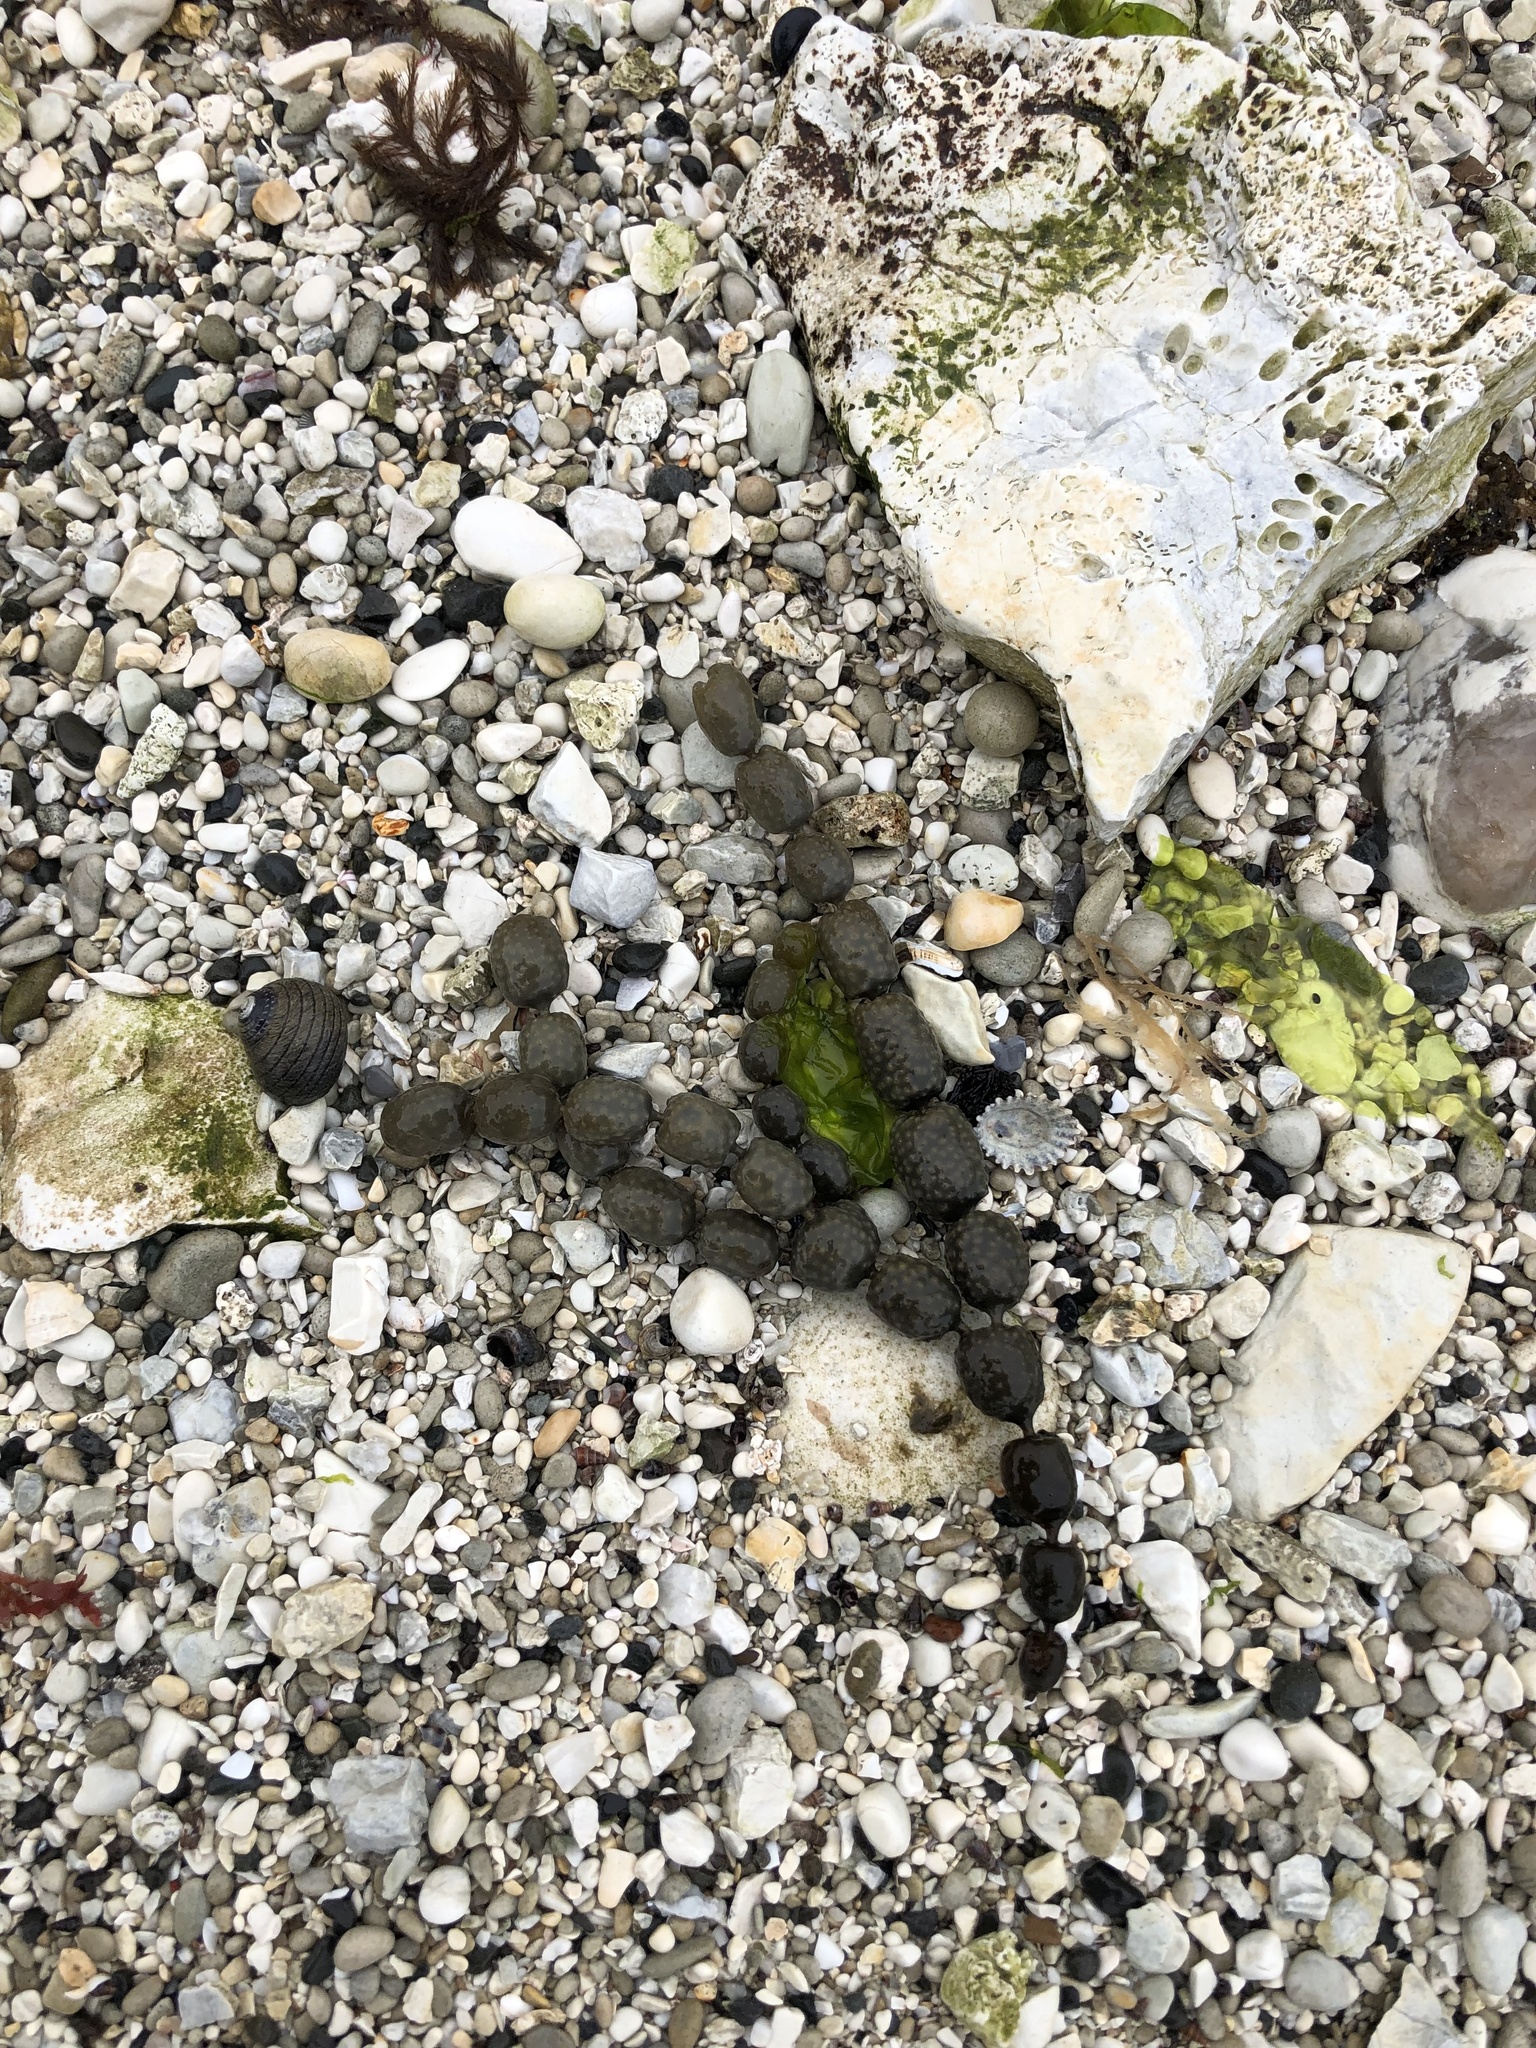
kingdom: Chromista
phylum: Ochrophyta
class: Phaeophyceae
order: Fucales
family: Hormosiraceae
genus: Hormosira
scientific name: Hormosira banksii
